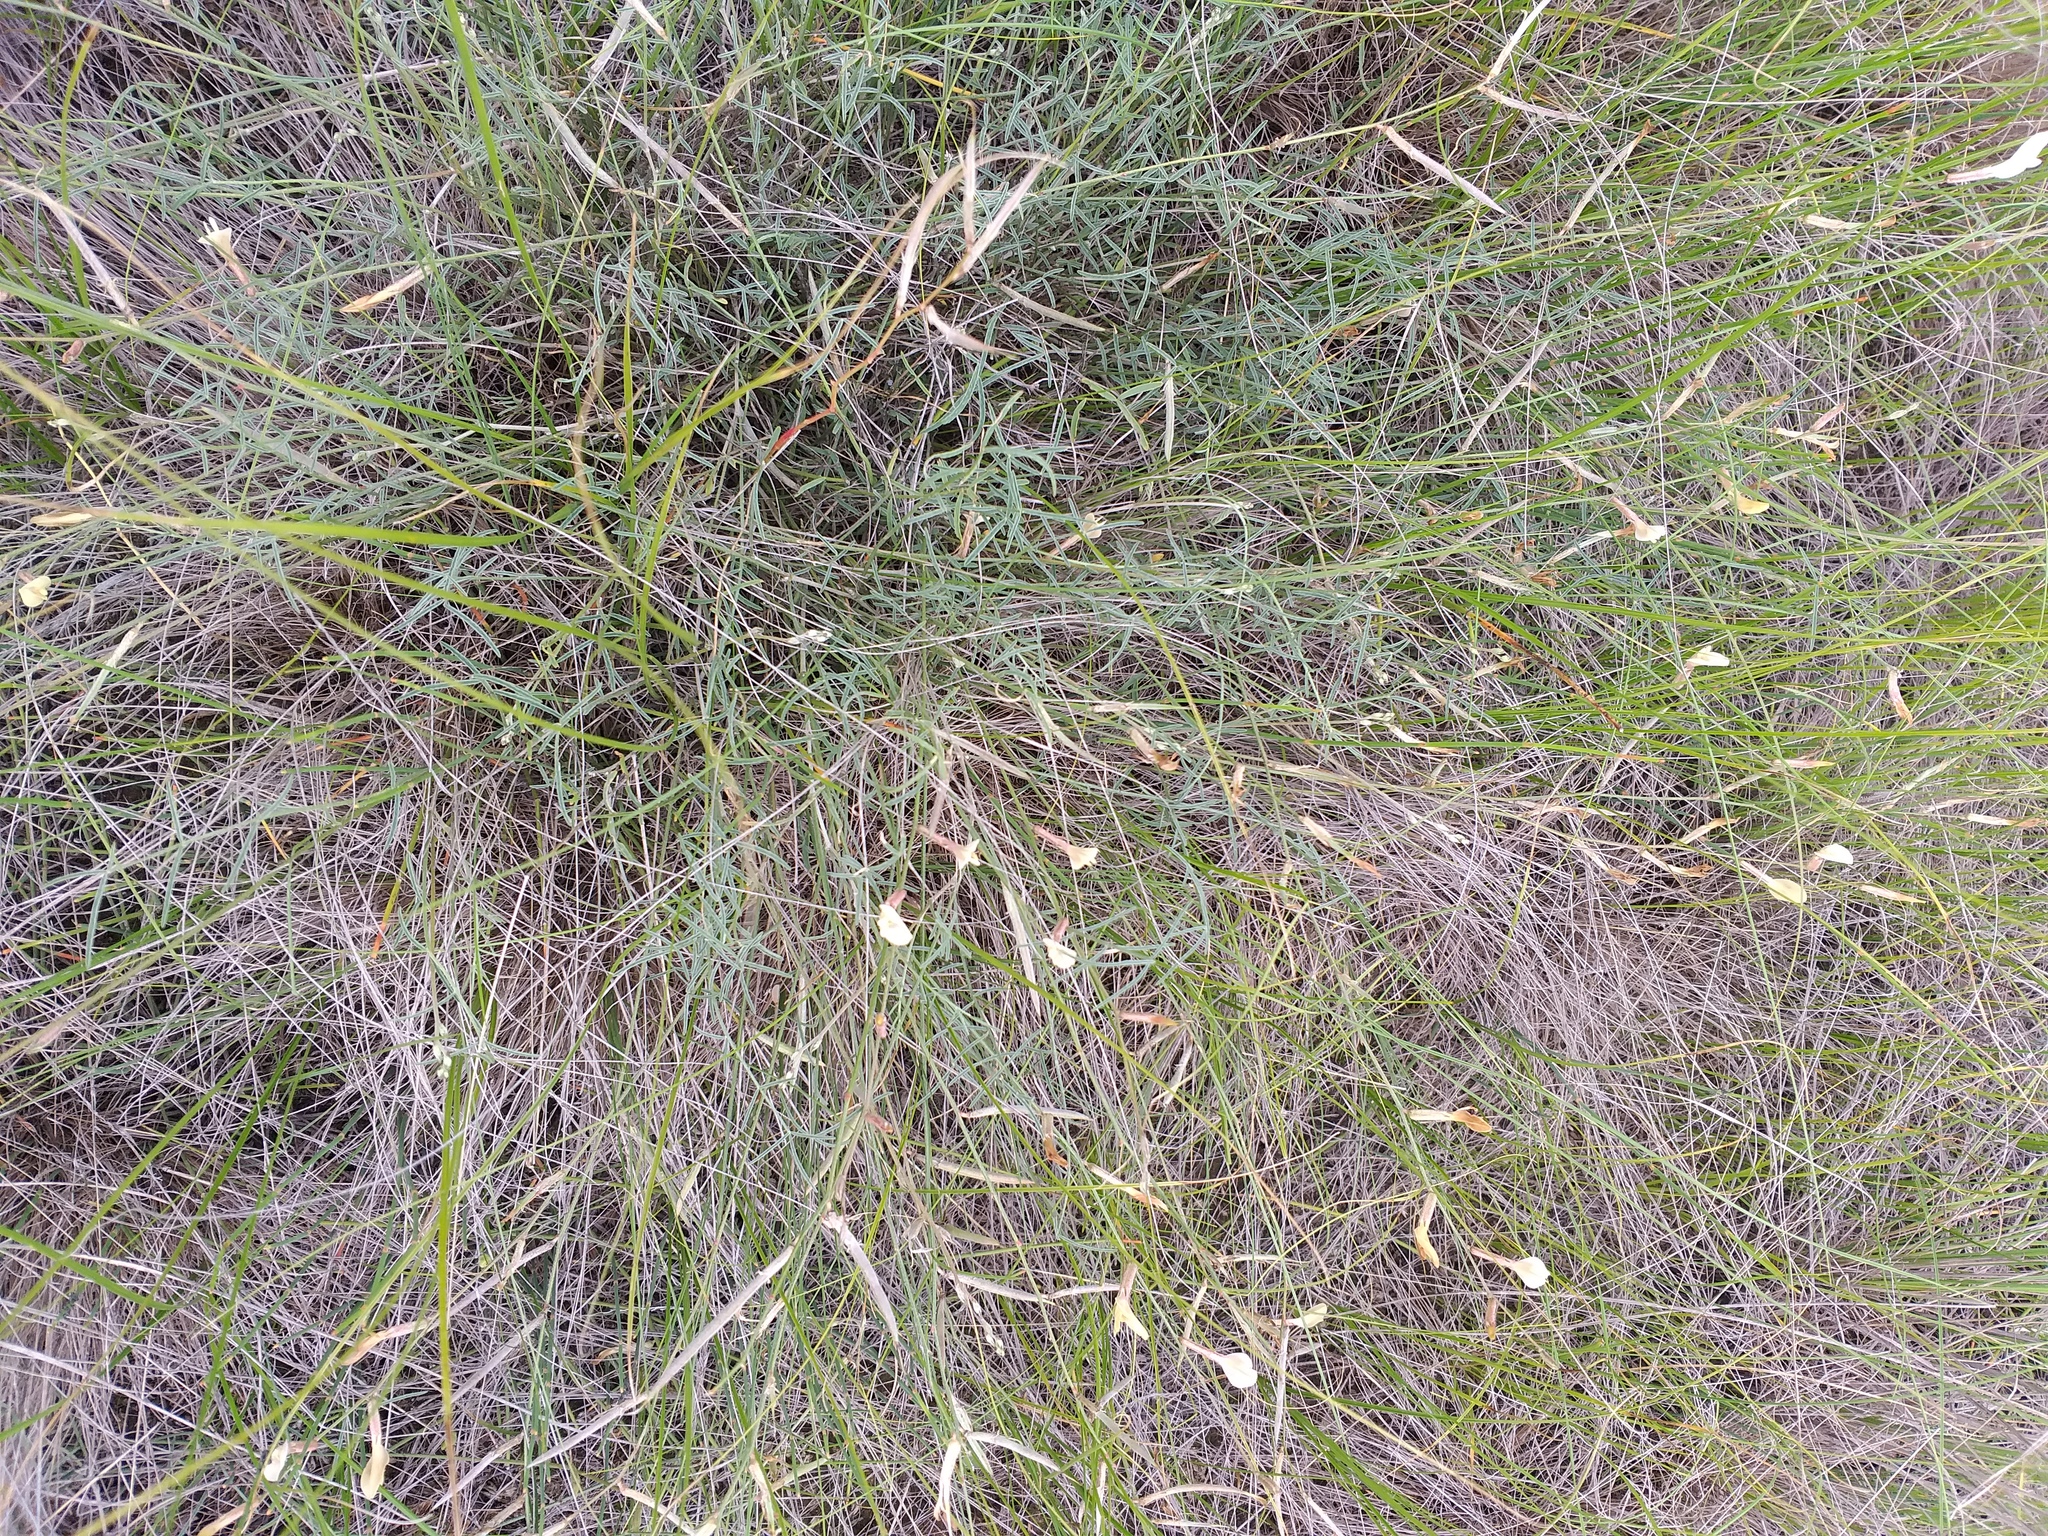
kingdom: Plantae
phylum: Tracheophyta
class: Magnoliopsida
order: Fabales
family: Fabaceae
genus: Astragalus
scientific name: Astragalus ucrainicus
